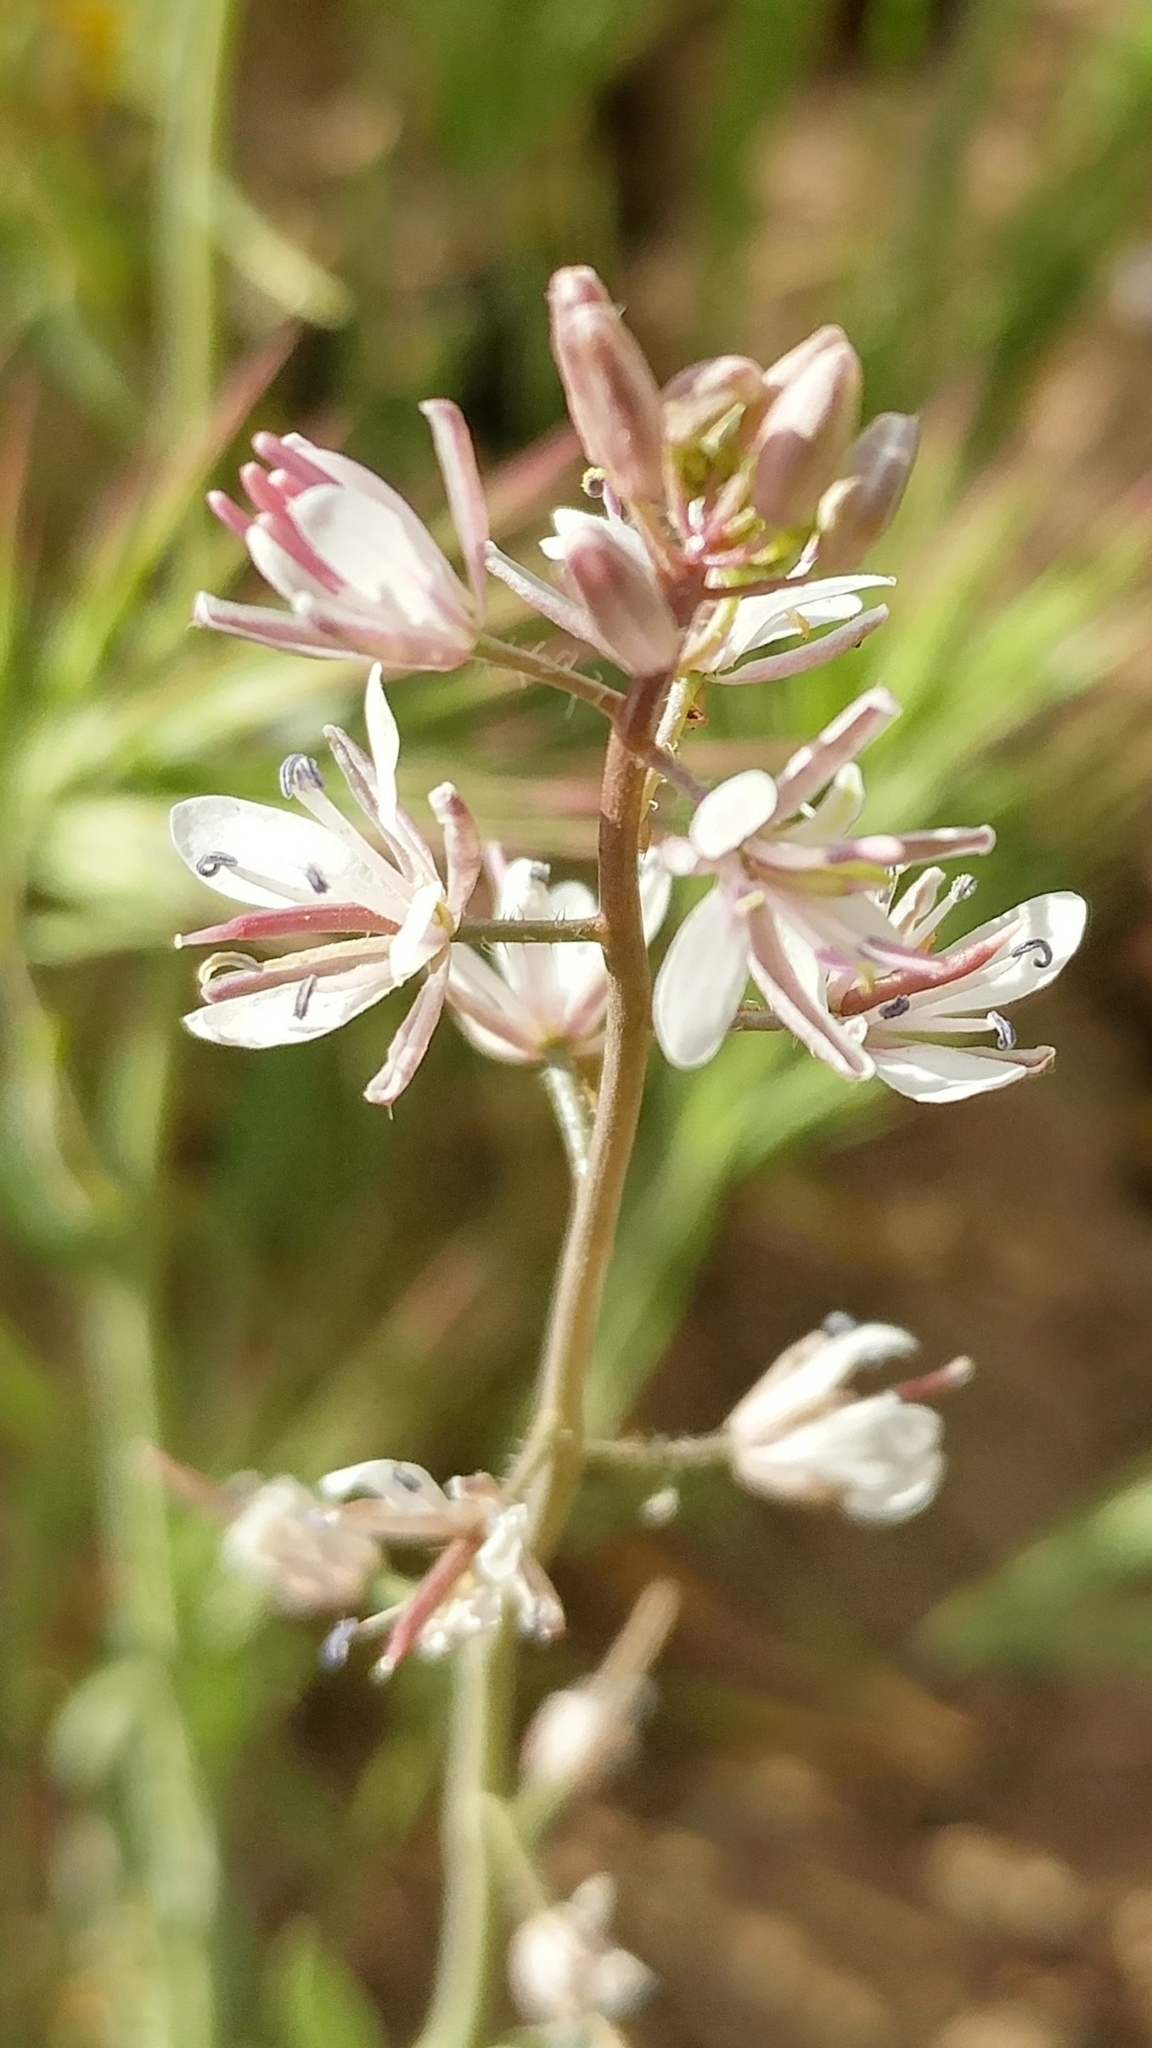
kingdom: Plantae
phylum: Tracheophyta
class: Magnoliopsida
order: Brassicales
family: Brassicaceae
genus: Streptanthus
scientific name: Streptanthus anceps
